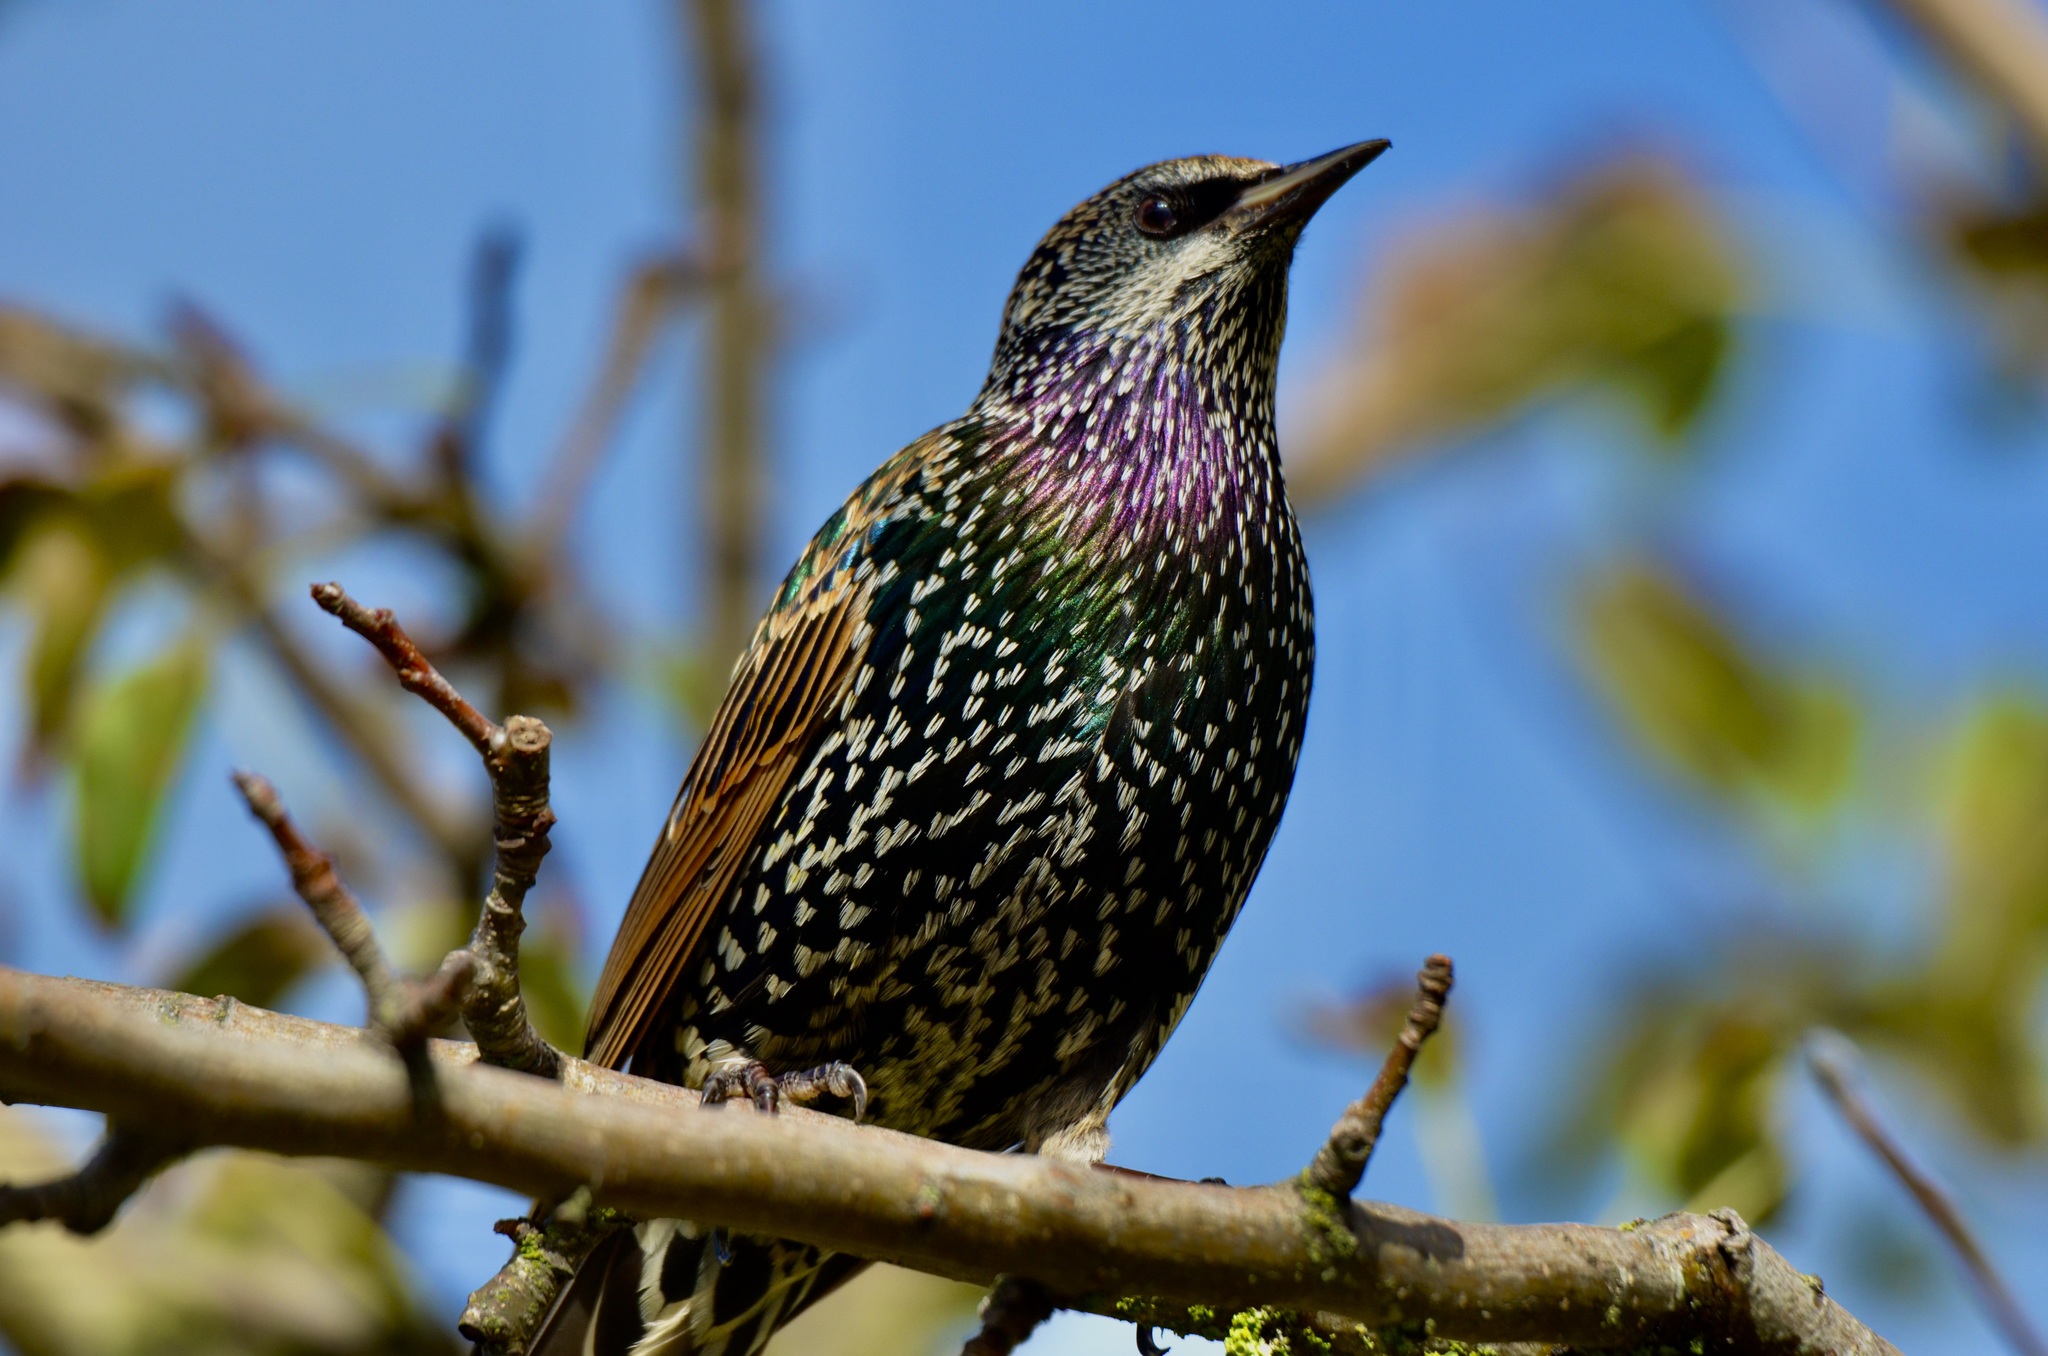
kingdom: Animalia
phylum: Chordata
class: Aves
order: Passeriformes
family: Sturnidae
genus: Sturnus
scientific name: Sturnus vulgaris
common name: Common starling
